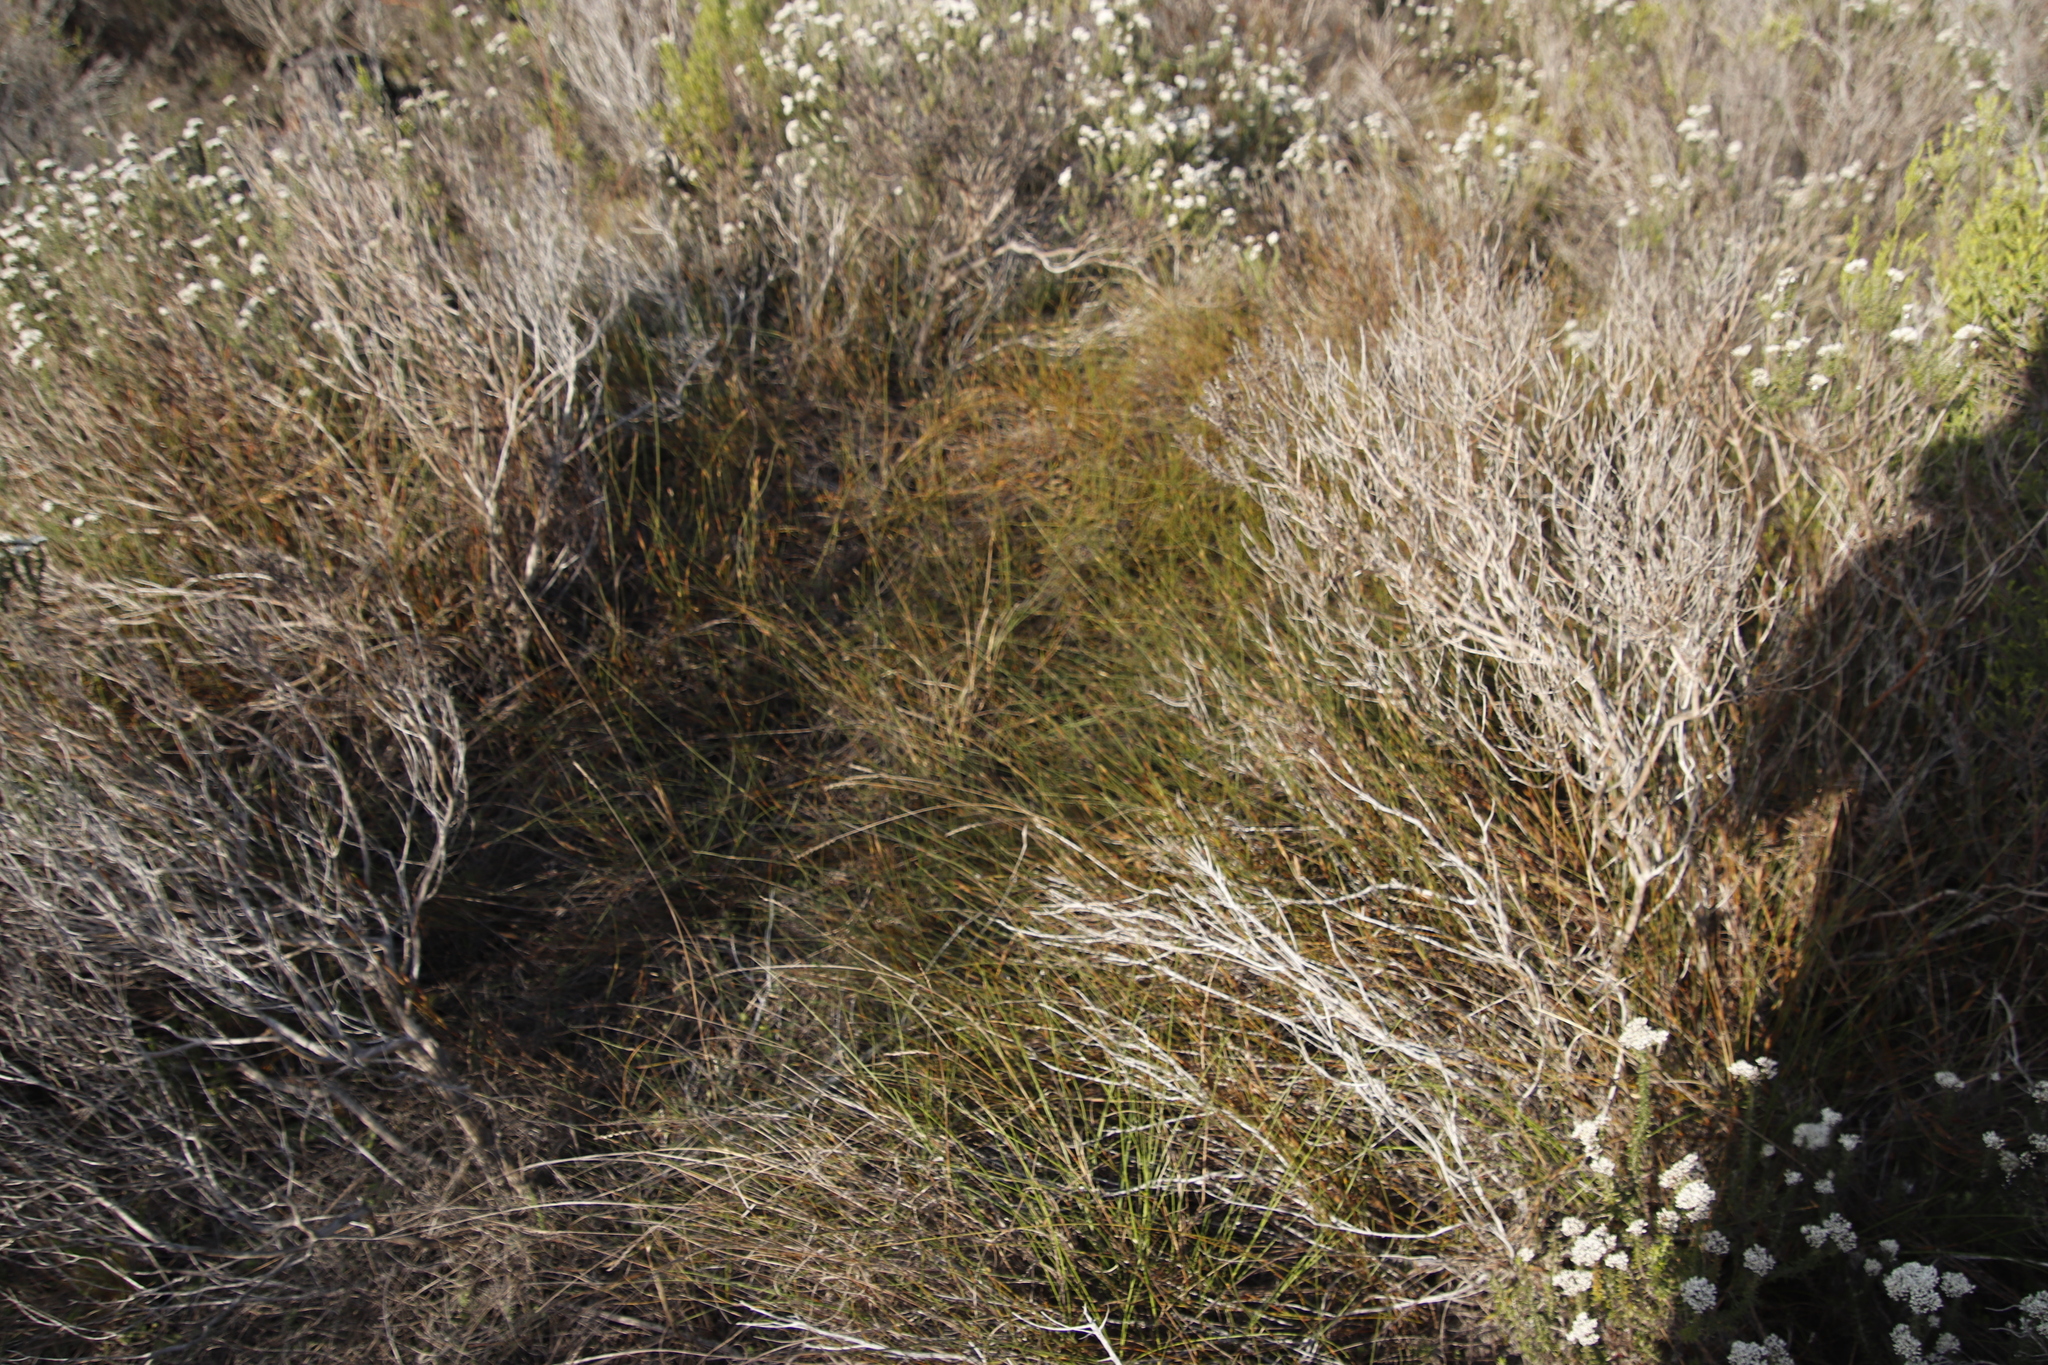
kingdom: Plantae
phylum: Tracheophyta
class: Liliopsida
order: Poales
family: Restionaceae
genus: Willdenowia
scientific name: Willdenowia sulcata
